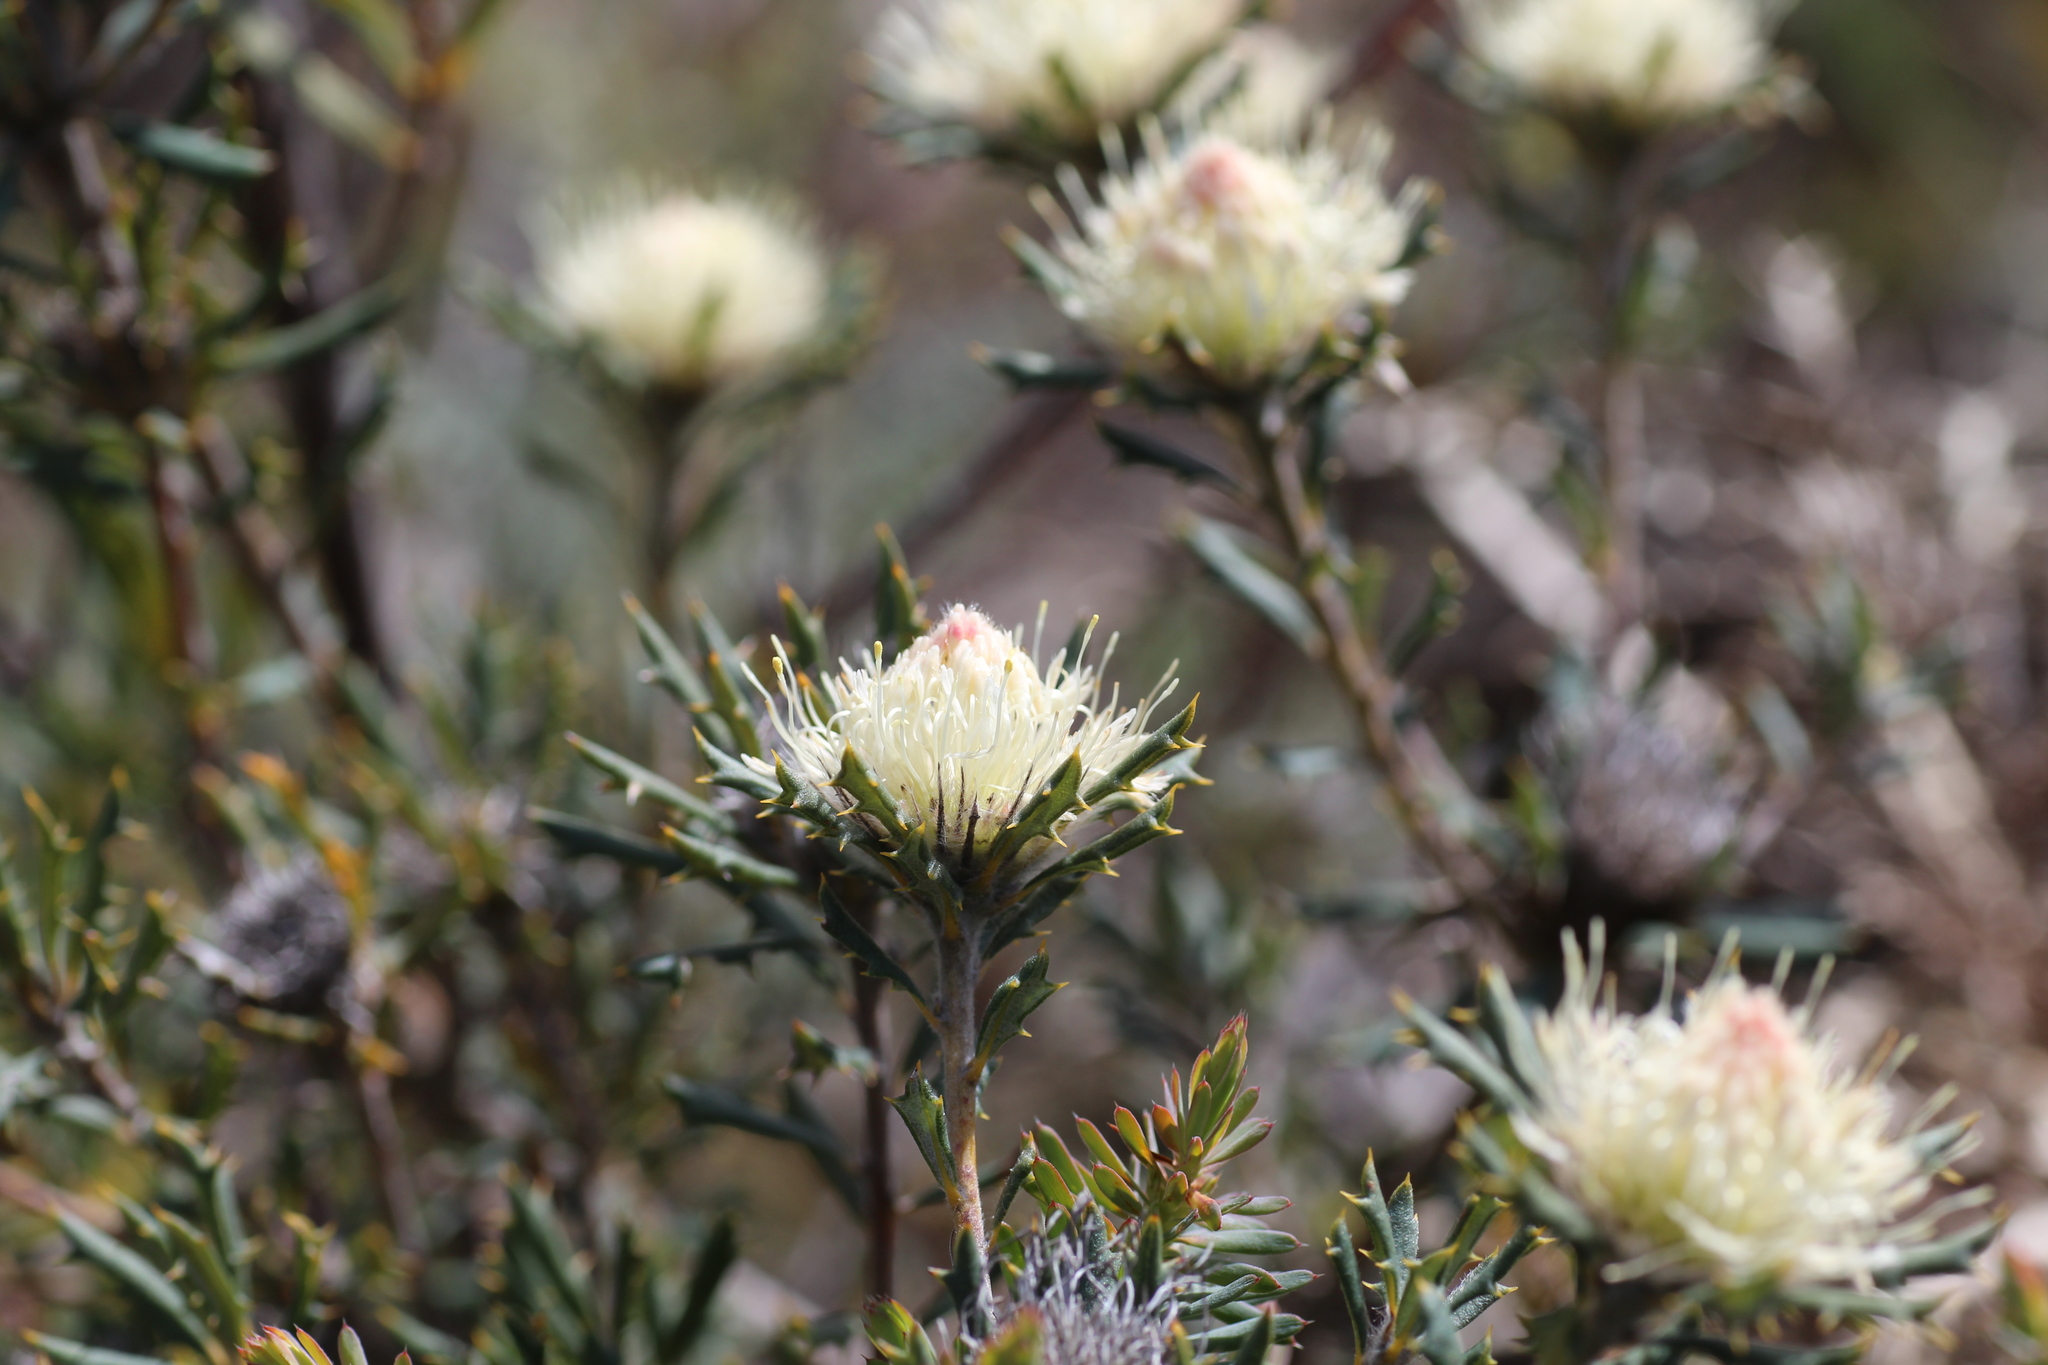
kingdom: Plantae
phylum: Tracheophyta
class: Magnoliopsida
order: Proteales
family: Proteaceae
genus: Banksia
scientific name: Banksia carlinoides
